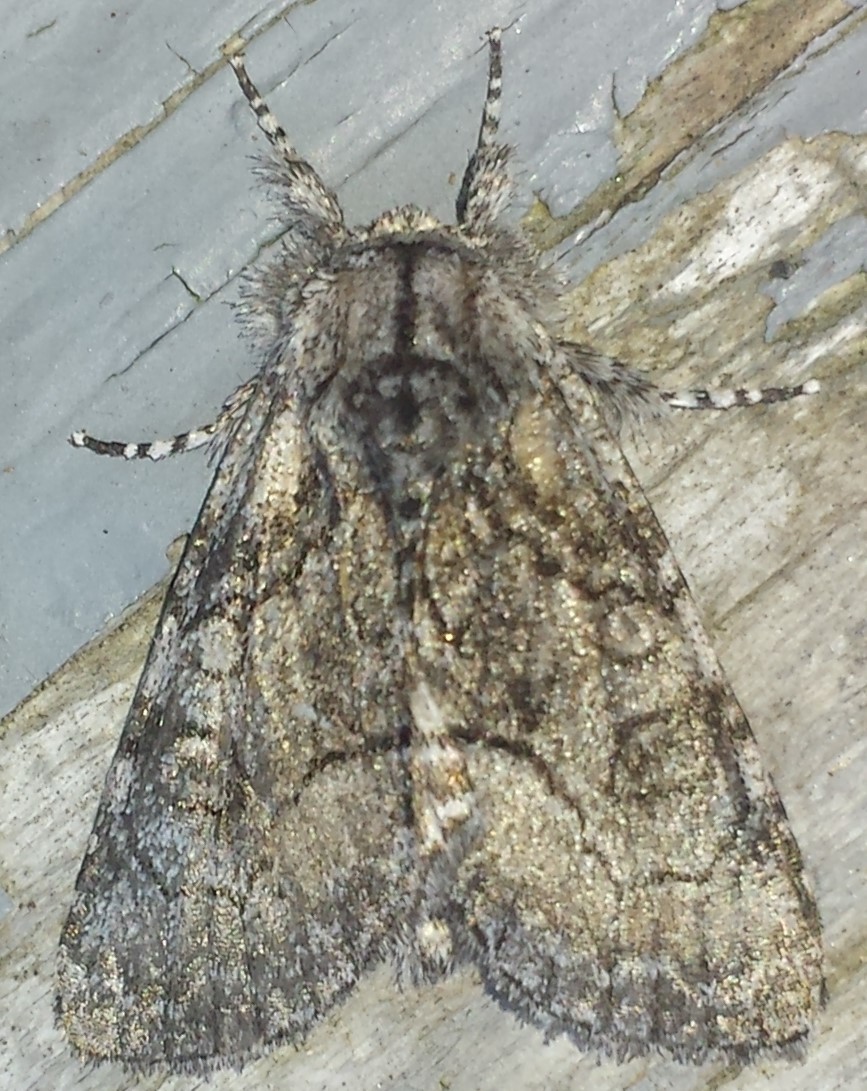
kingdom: Animalia
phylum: Arthropoda
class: Insecta
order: Lepidoptera
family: Noctuidae
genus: Raphia
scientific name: Raphia frater
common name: Brother
